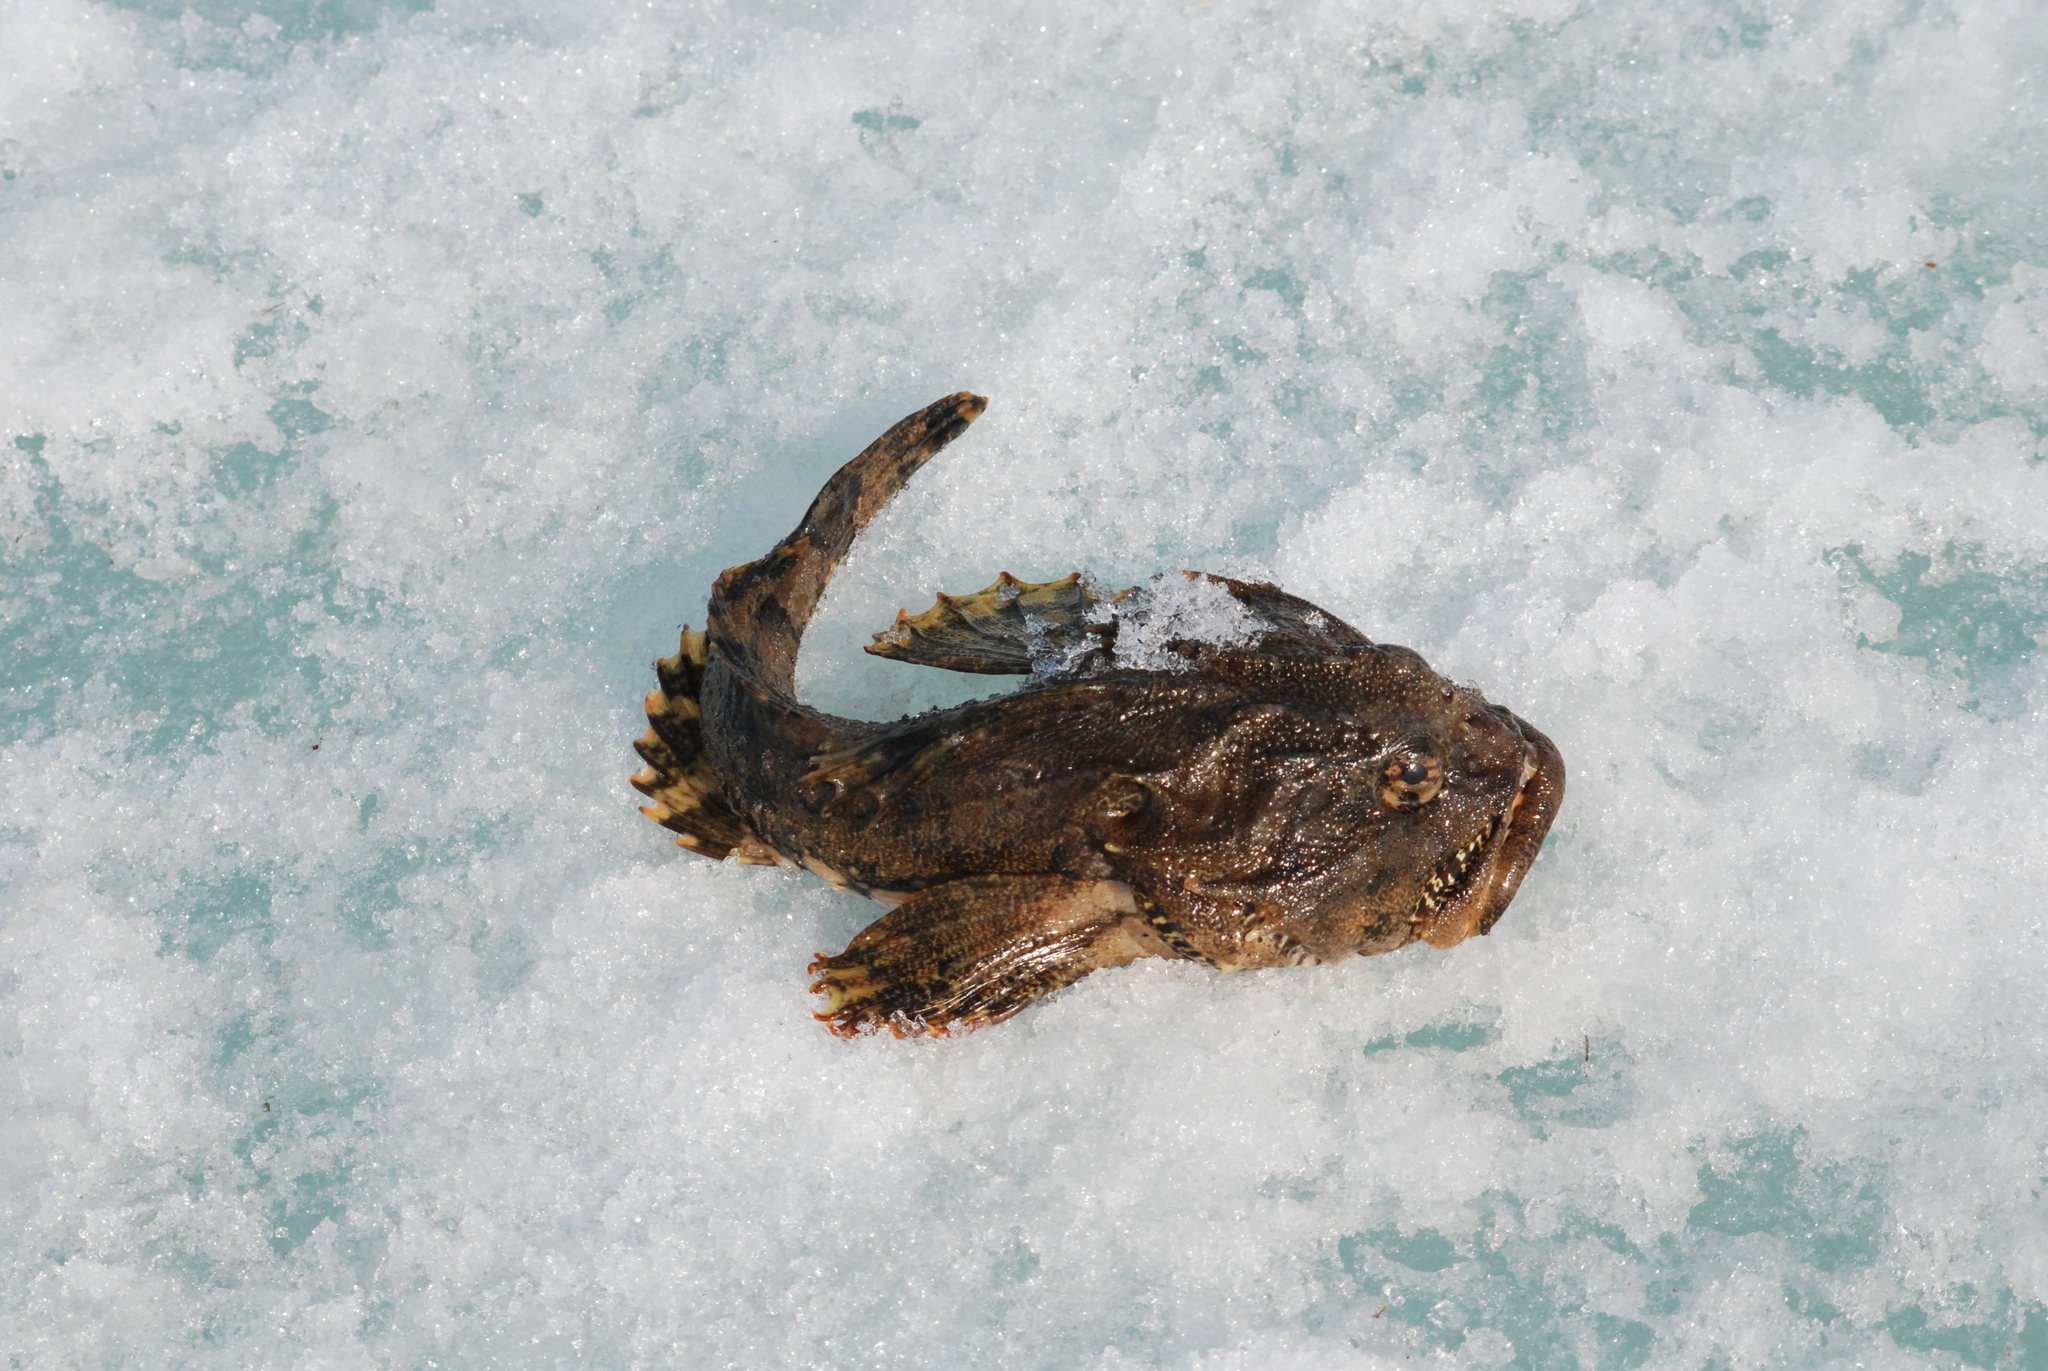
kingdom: Animalia
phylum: Chordata
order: Scorpaeniformes
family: Cottidae
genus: Myoxocephalus
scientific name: Myoxocephalus scorpius
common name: Shorthorn sculpin
